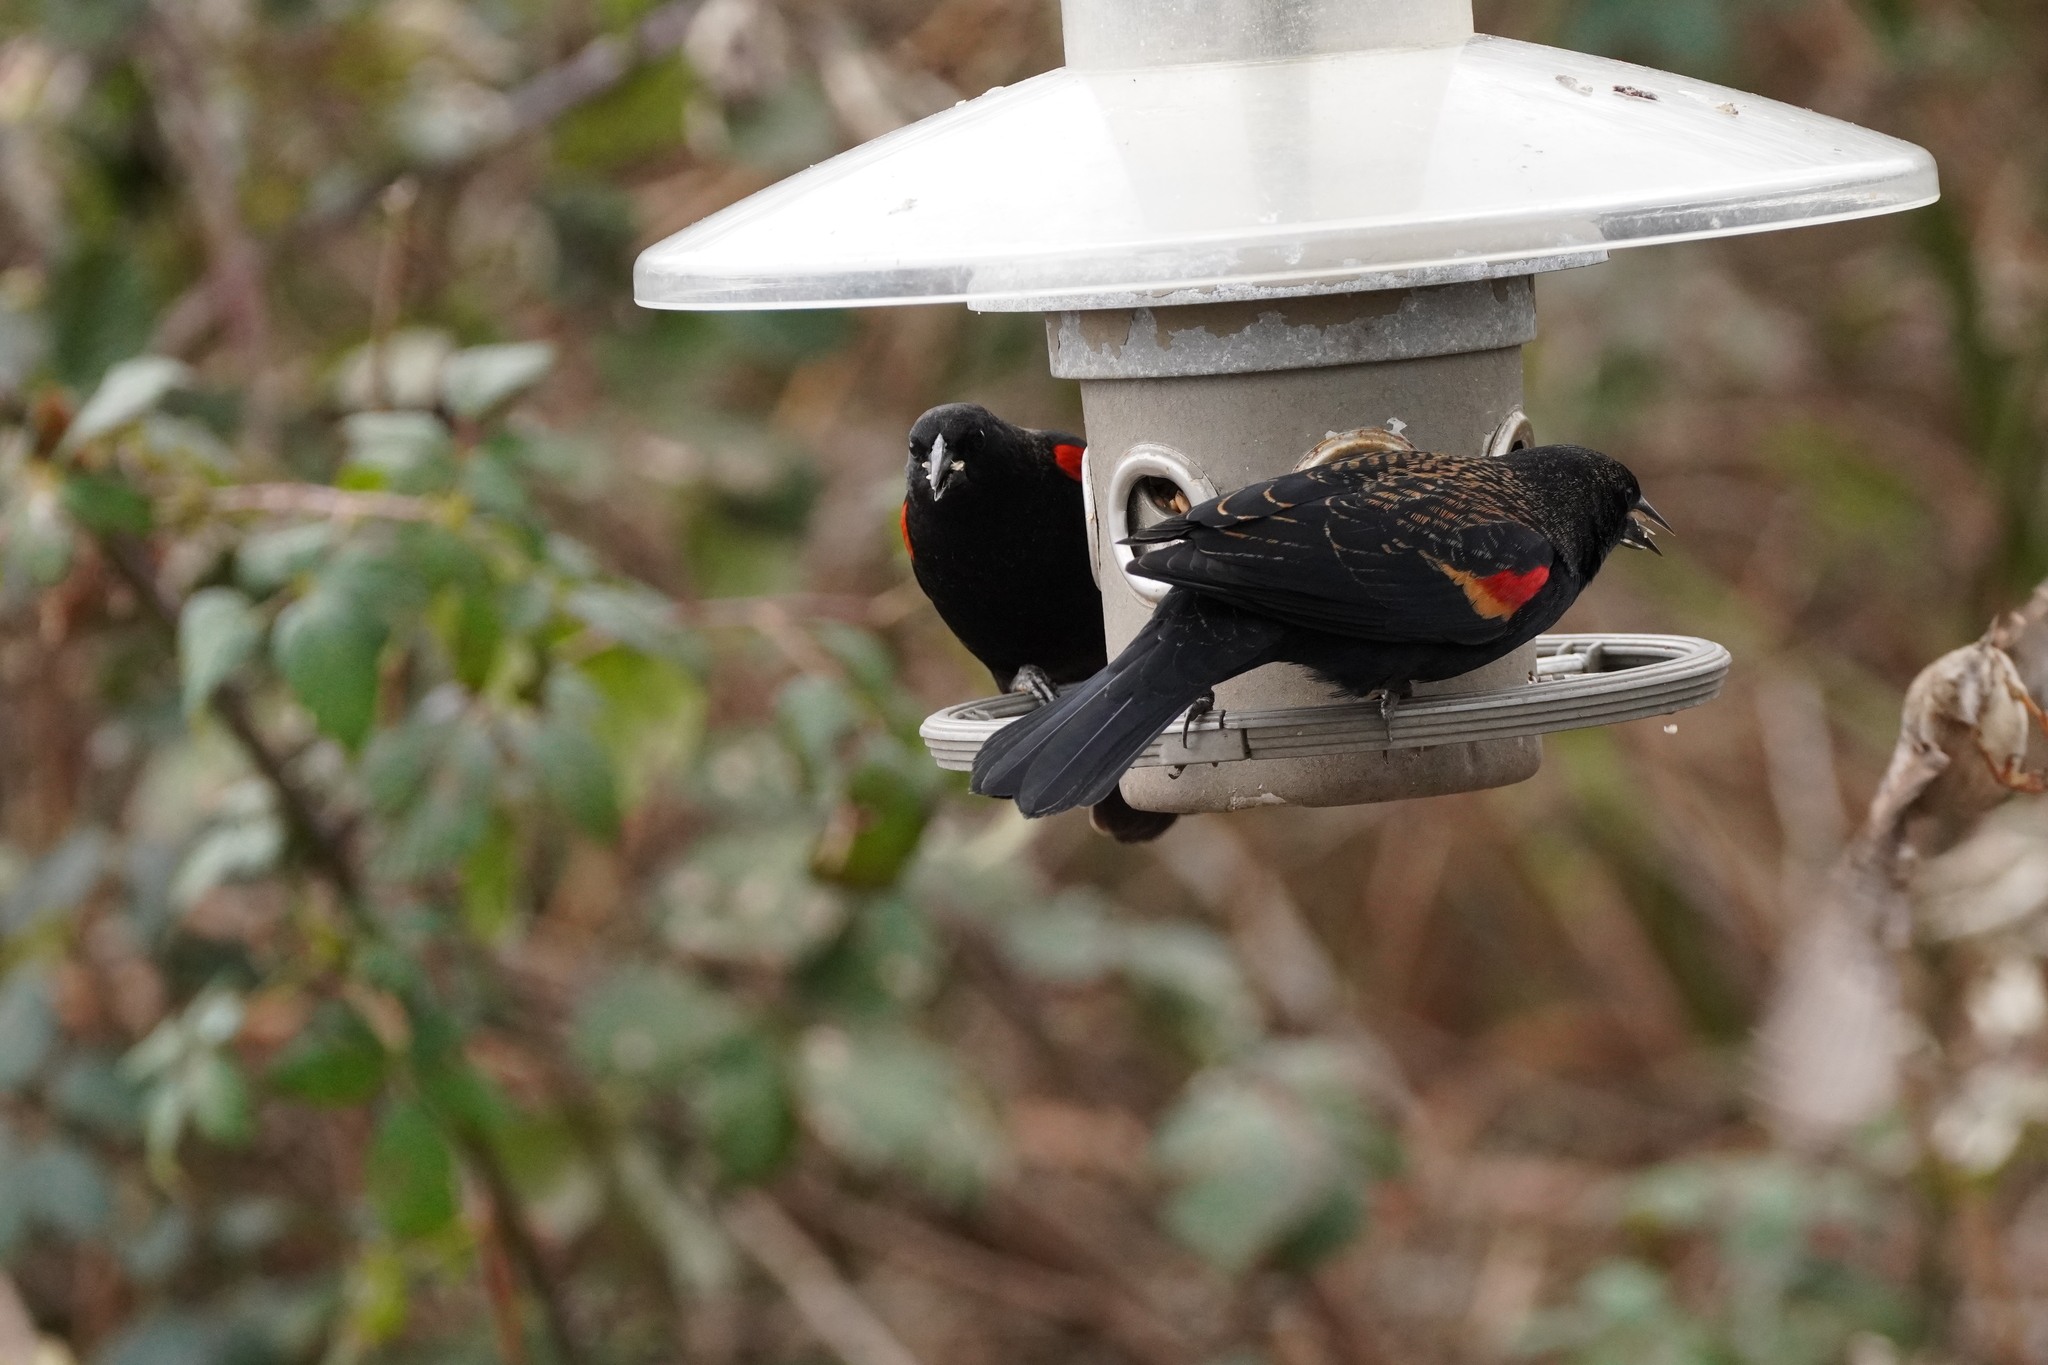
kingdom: Animalia
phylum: Chordata
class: Aves
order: Passeriformes
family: Icteridae
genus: Agelaius
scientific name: Agelaius phoeniceus
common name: Red-winged blackbird
